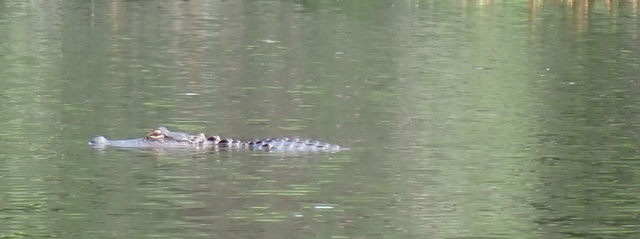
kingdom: Animalia
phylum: Chordata
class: Crocodylia
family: Alligatoridae
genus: Alligator
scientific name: Alligator mississippiensis
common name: American alligator
